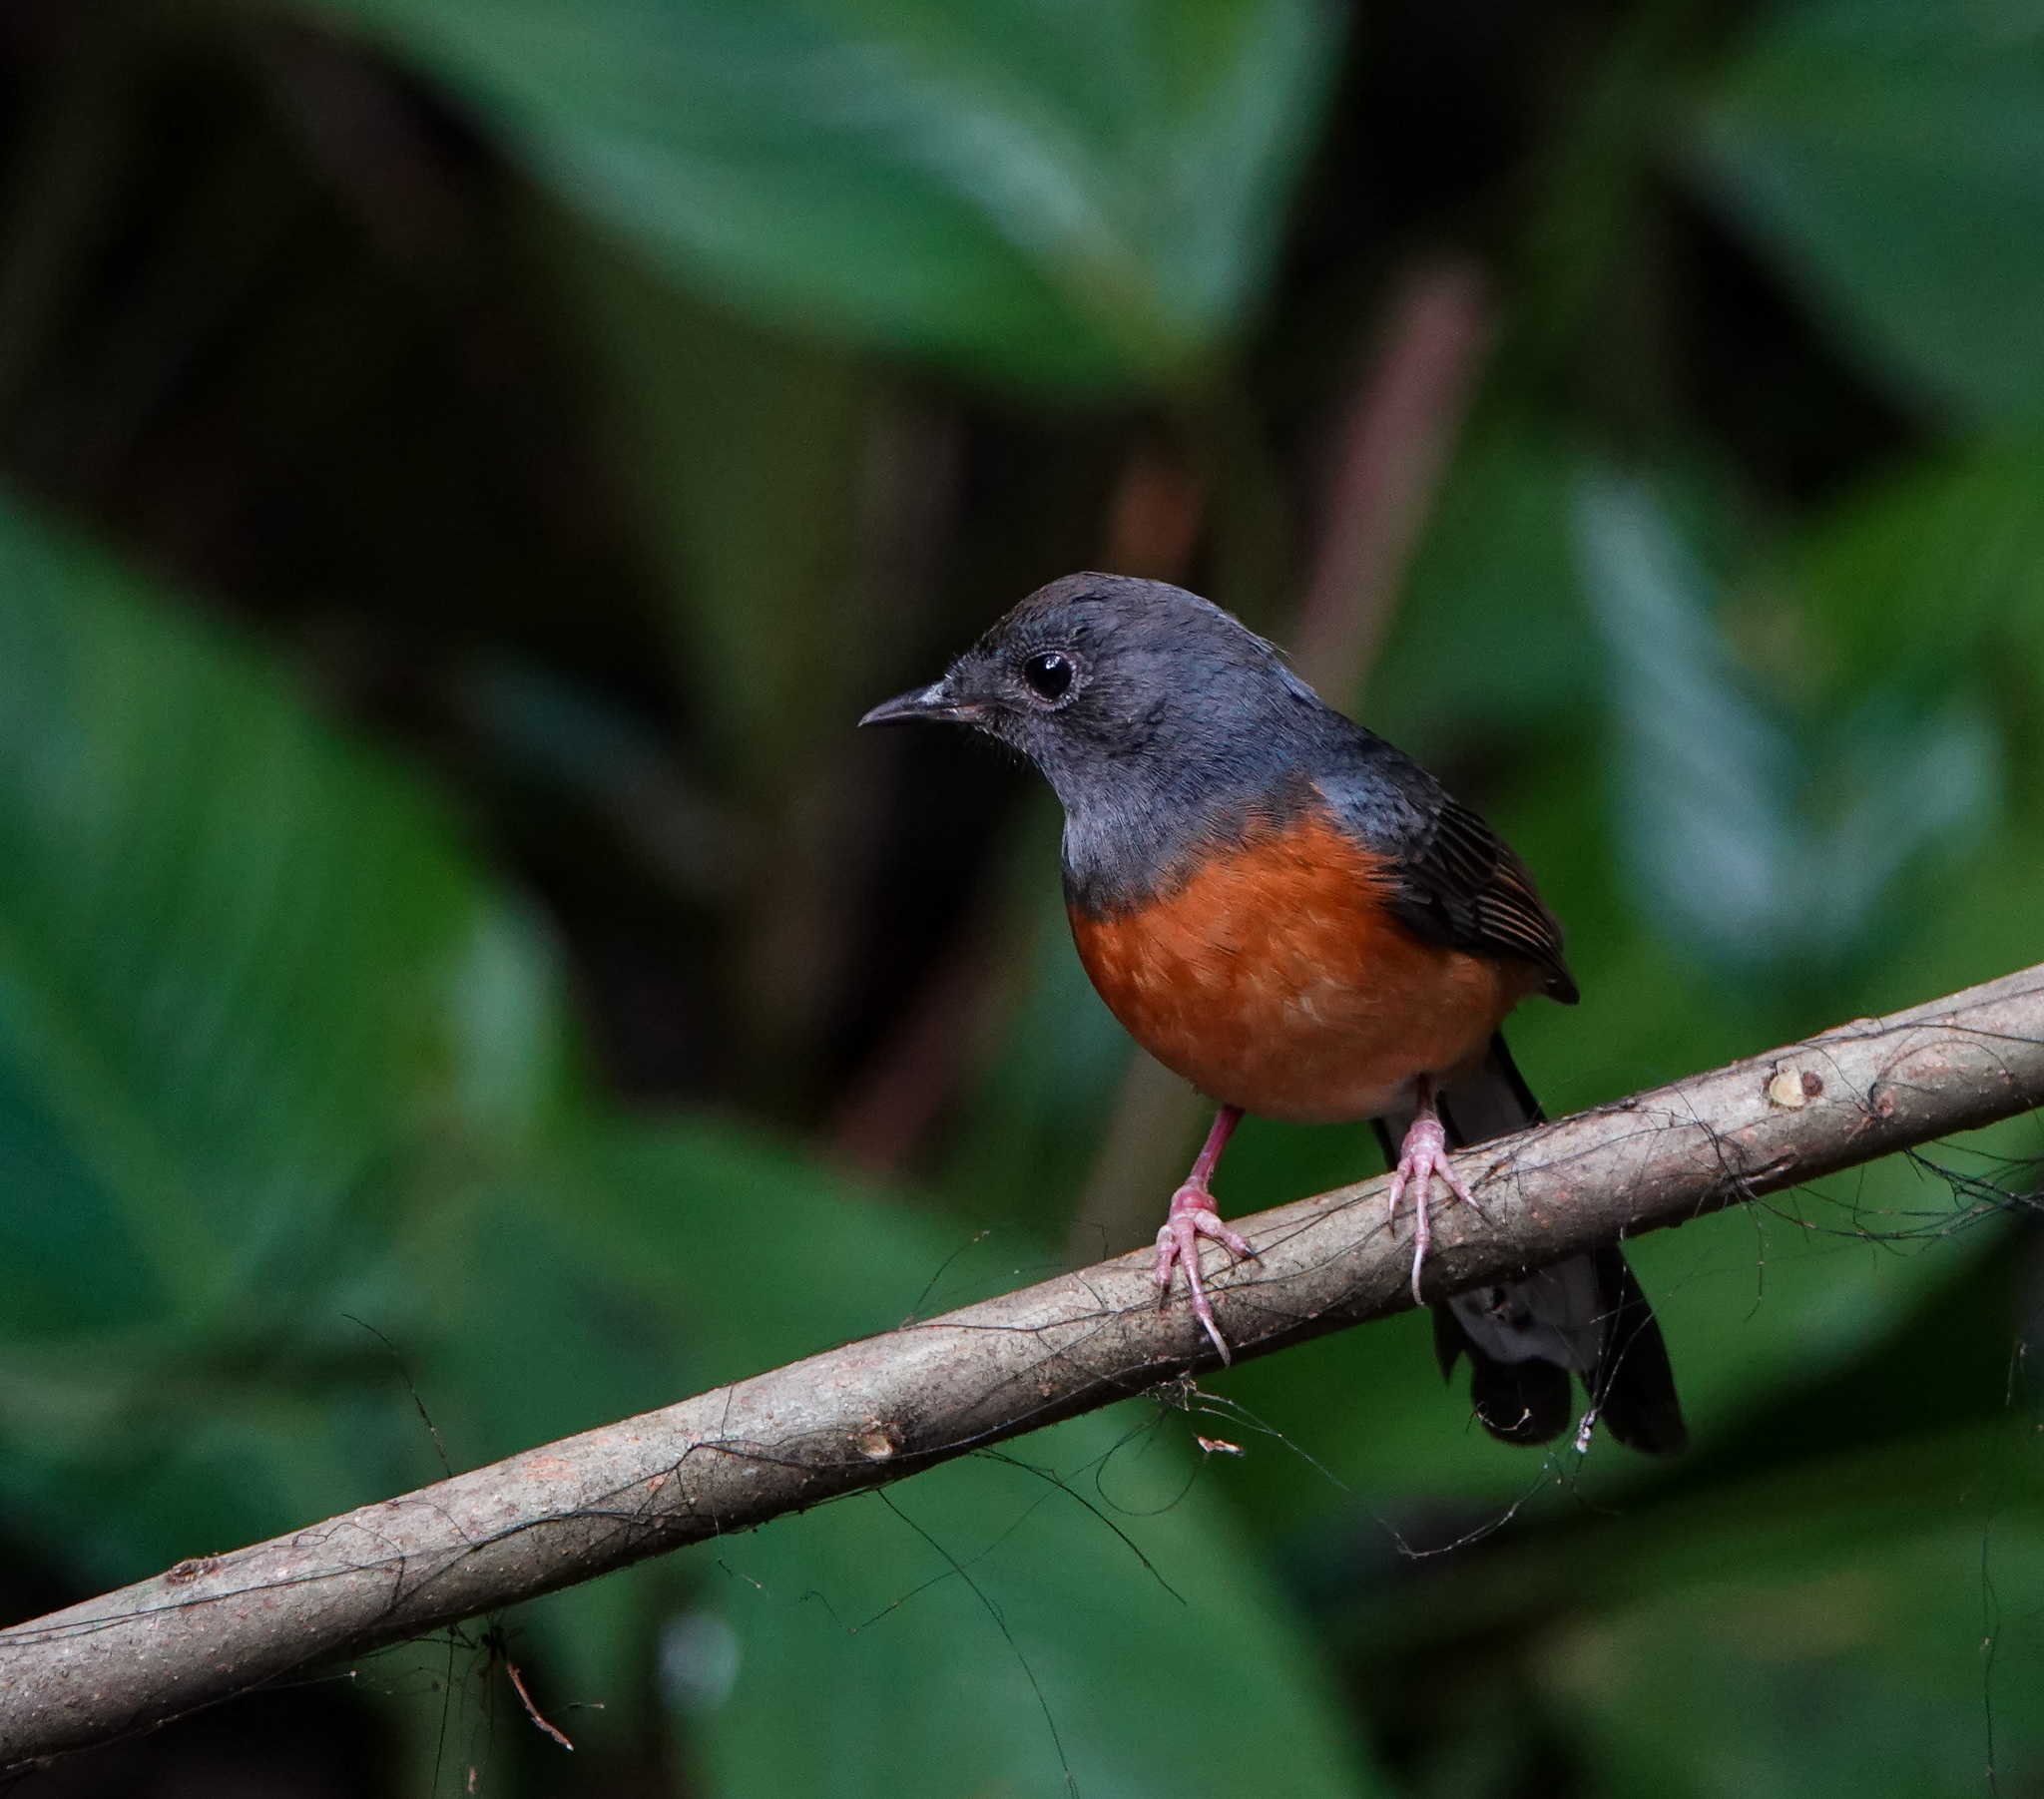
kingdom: Animalia
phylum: Chordata
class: Aves
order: Passeriformes
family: Muscicapidae
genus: Copsychus
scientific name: Copsychus malabaricus
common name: White-rumped shama
